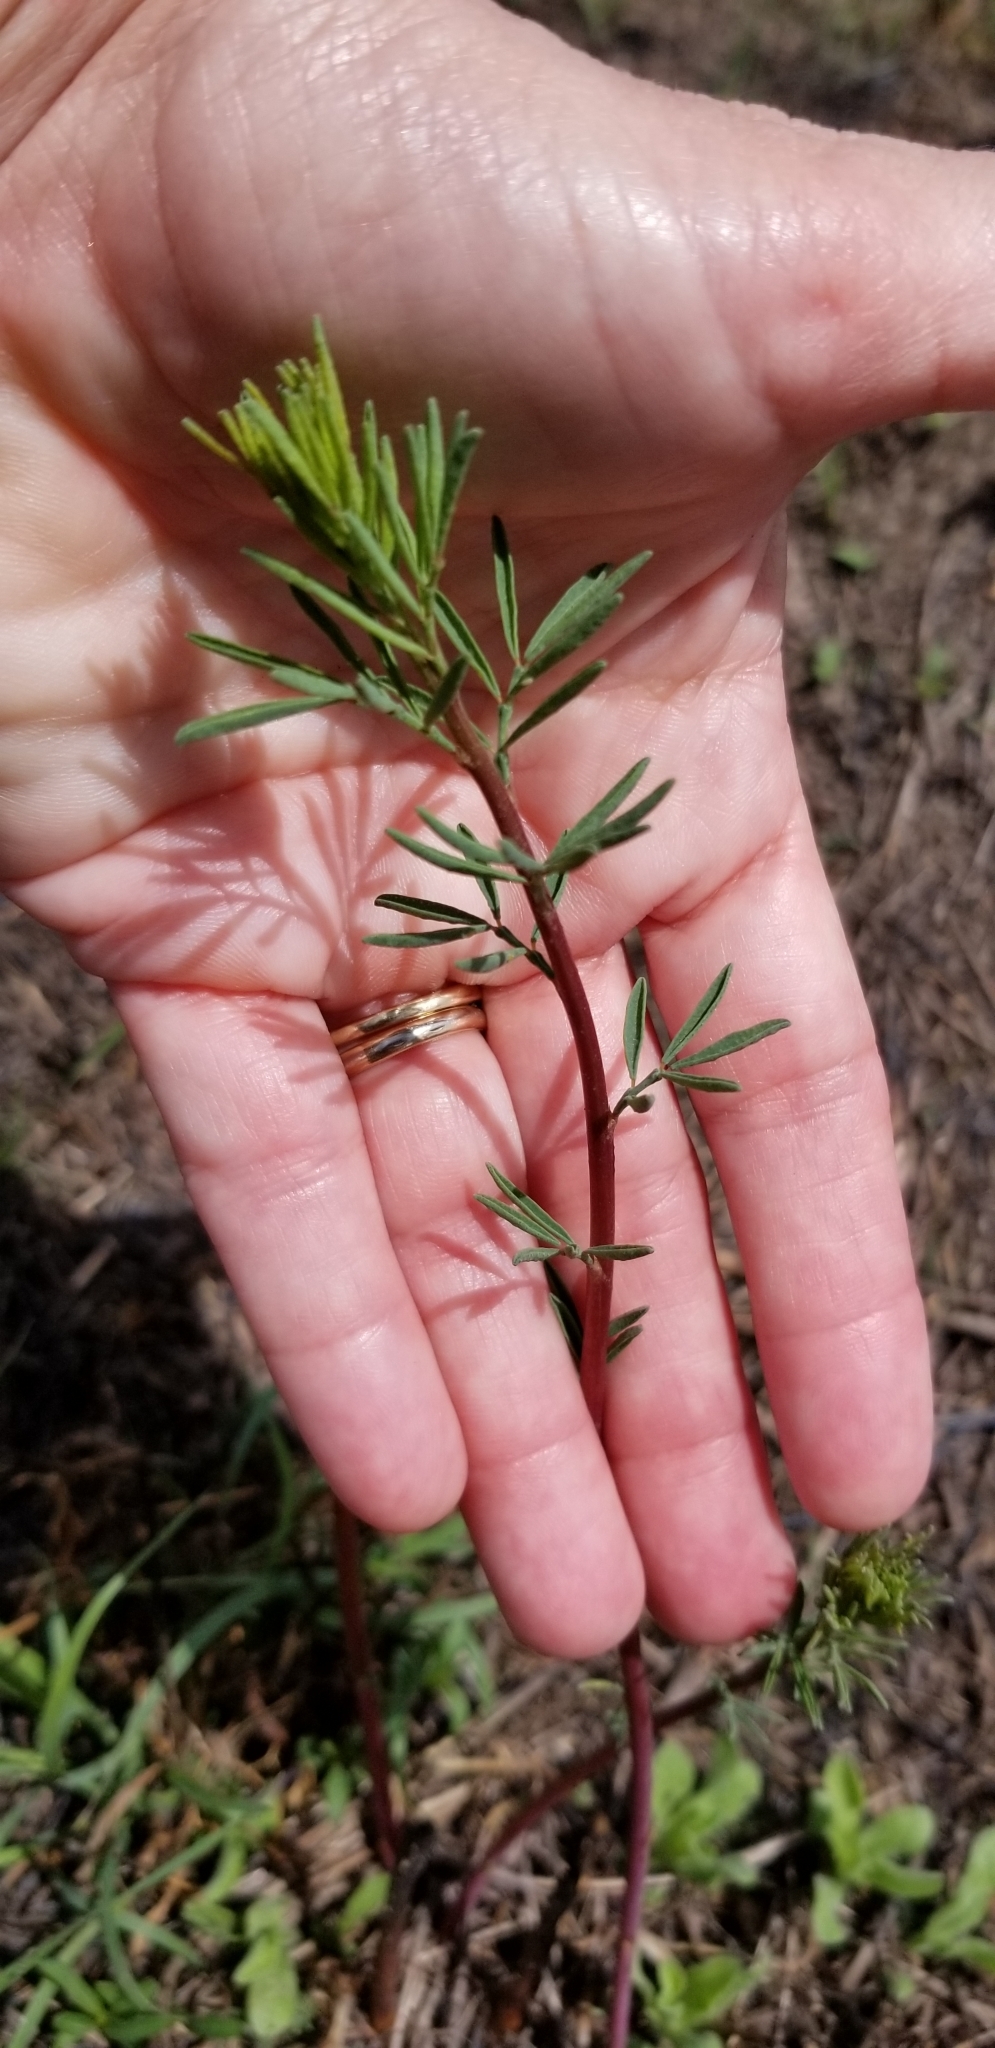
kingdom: Plantae
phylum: Tracheophyta
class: Magnoliopsida
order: Fabales
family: Fabaceae
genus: Dalea
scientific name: Dalea enneandra
